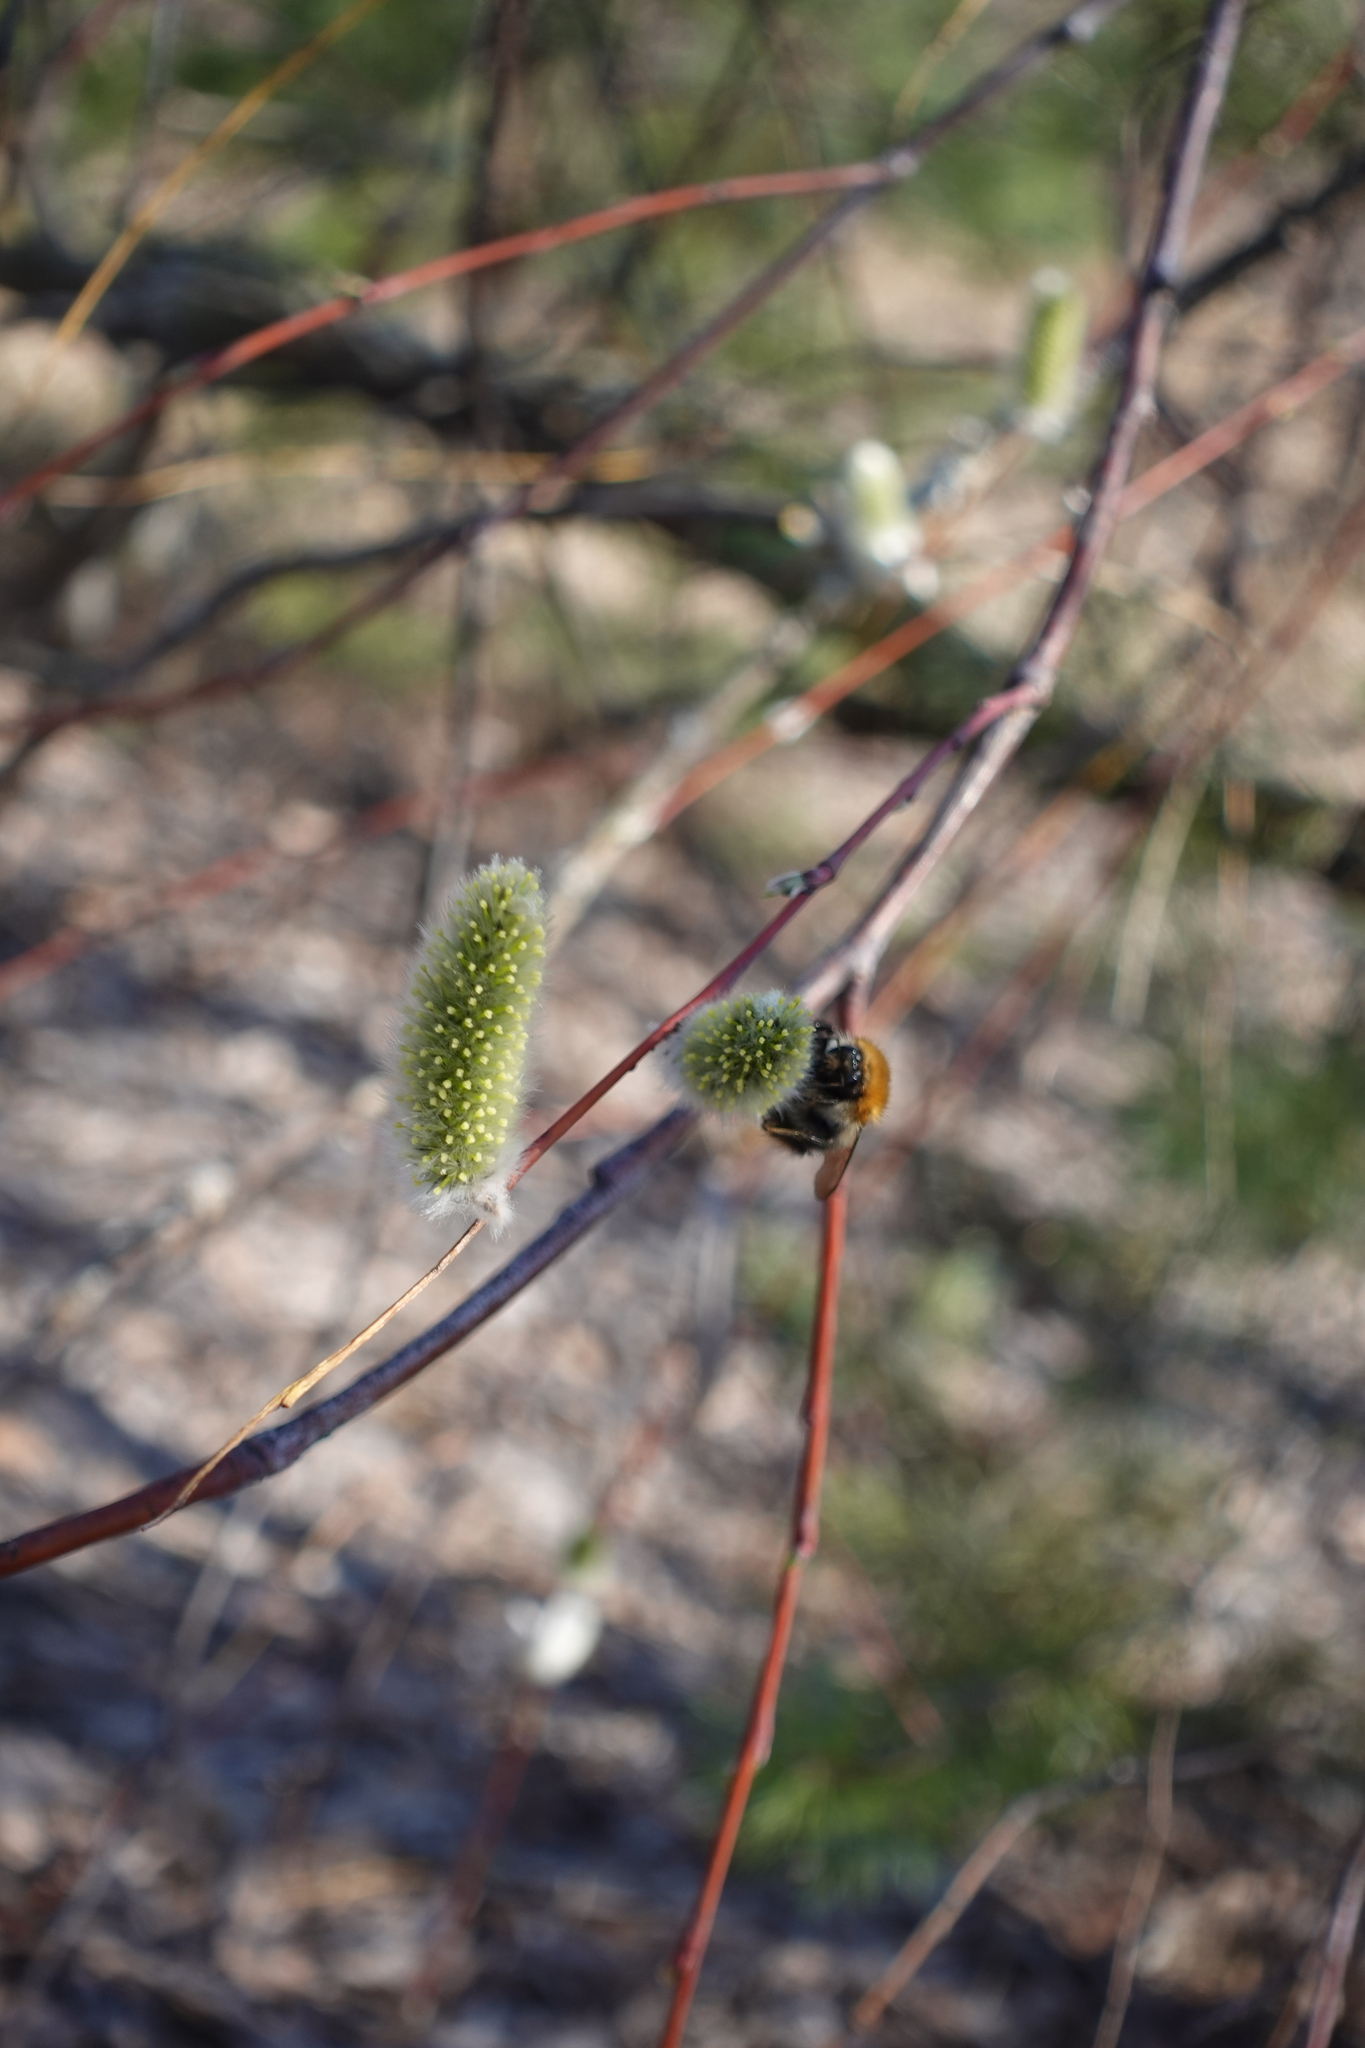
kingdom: Animalia
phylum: Arthropoda
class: Insecta
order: Hymenoptera
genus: Thoracobombus
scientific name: Thoracobombus
